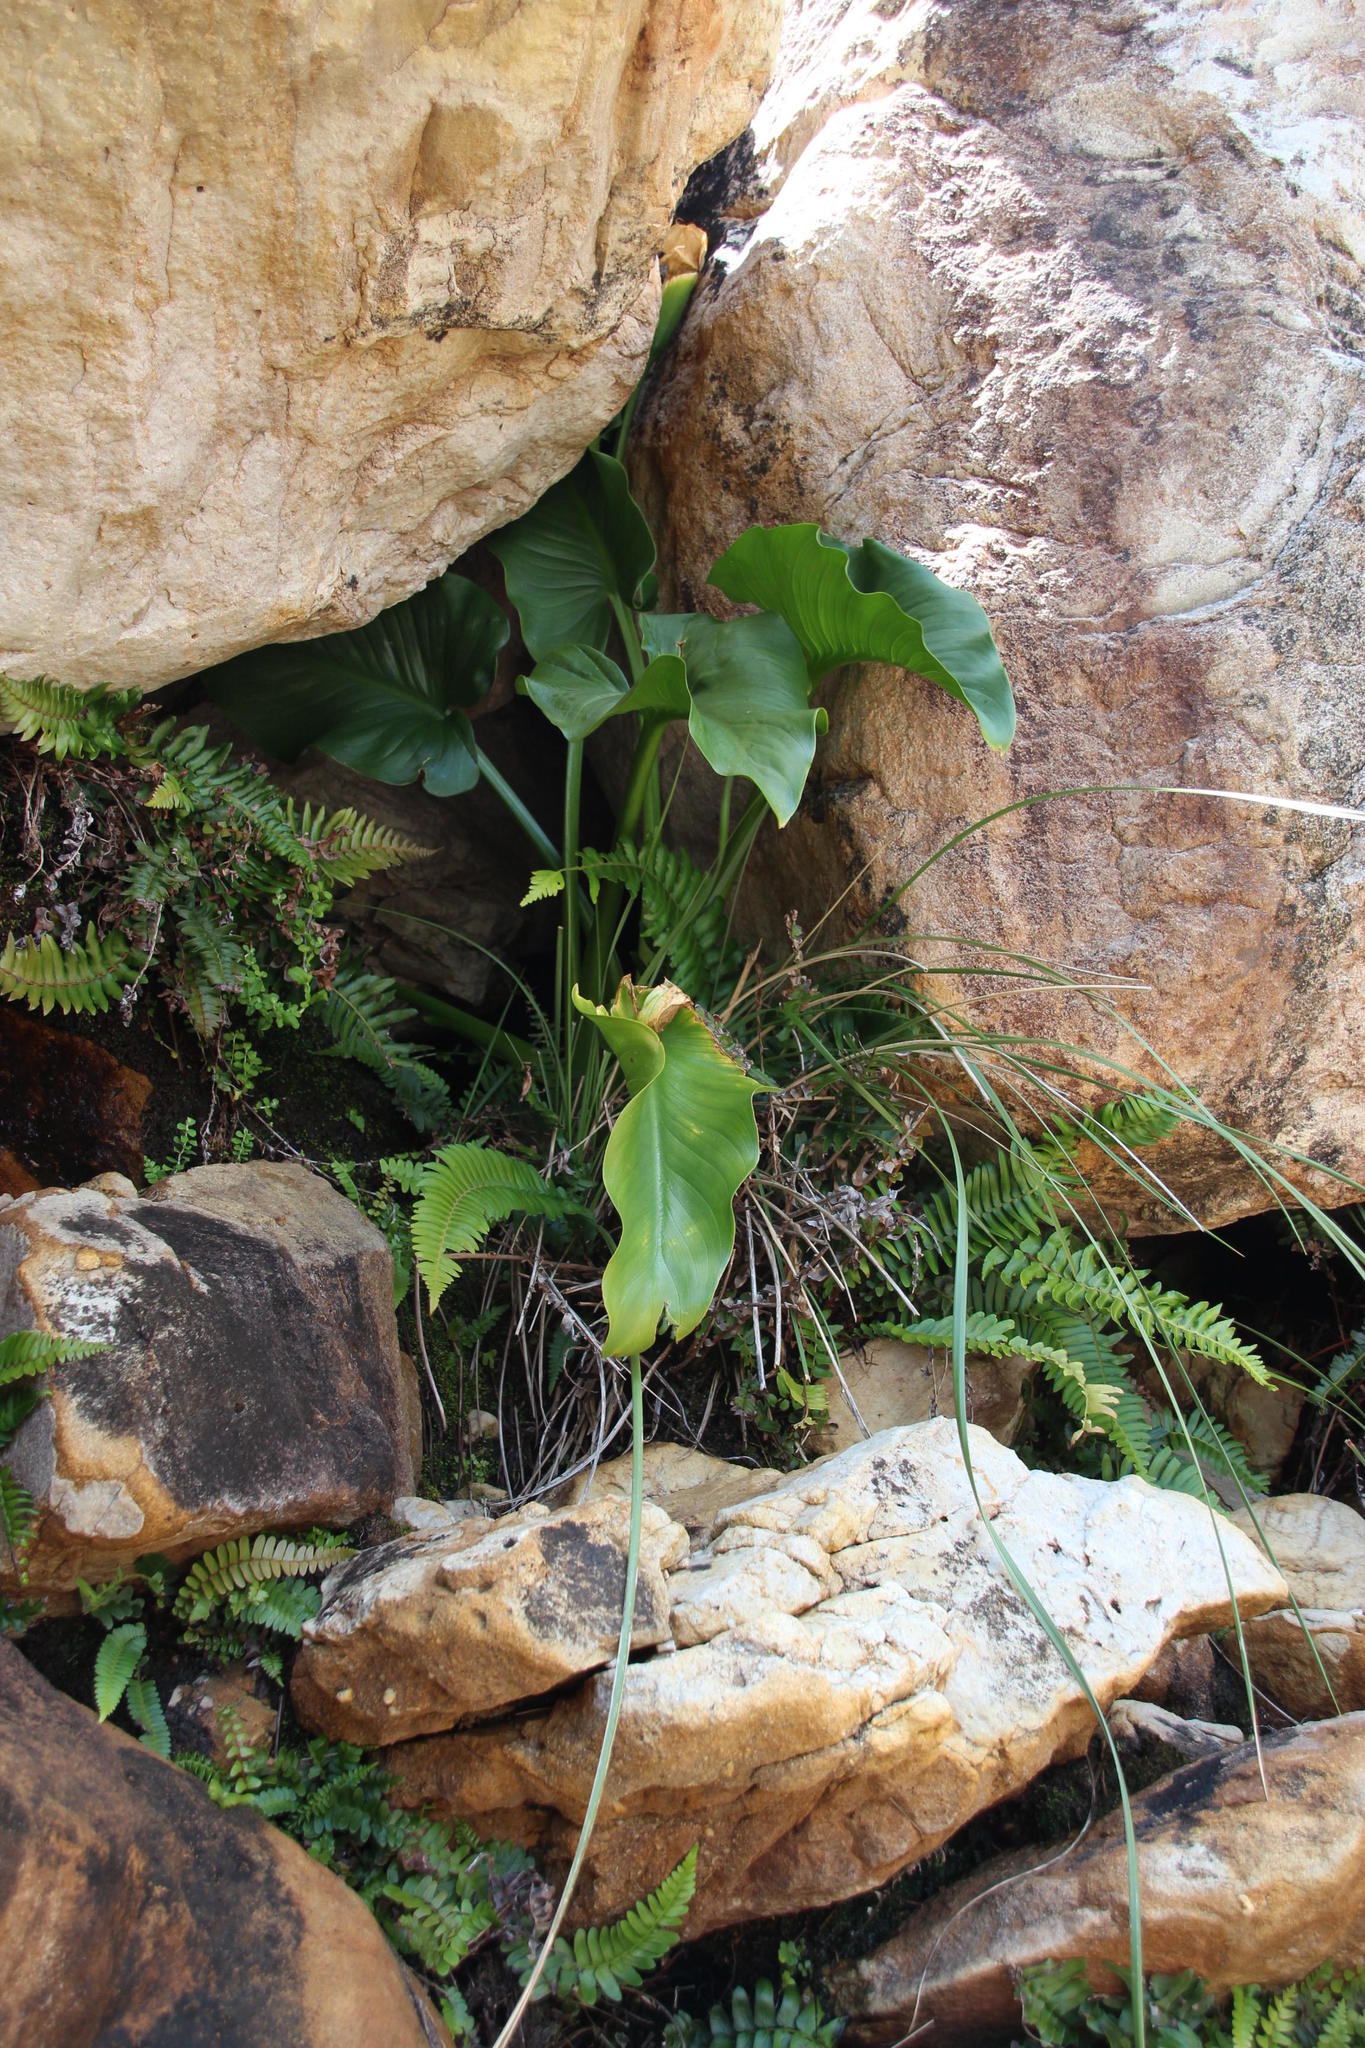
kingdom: Plantae
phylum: Tracheophyta
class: Liliopsida
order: Alismatales
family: Araceae
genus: Zantedeschia
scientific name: Zantedeschia aethiopica
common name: Altar-lily
